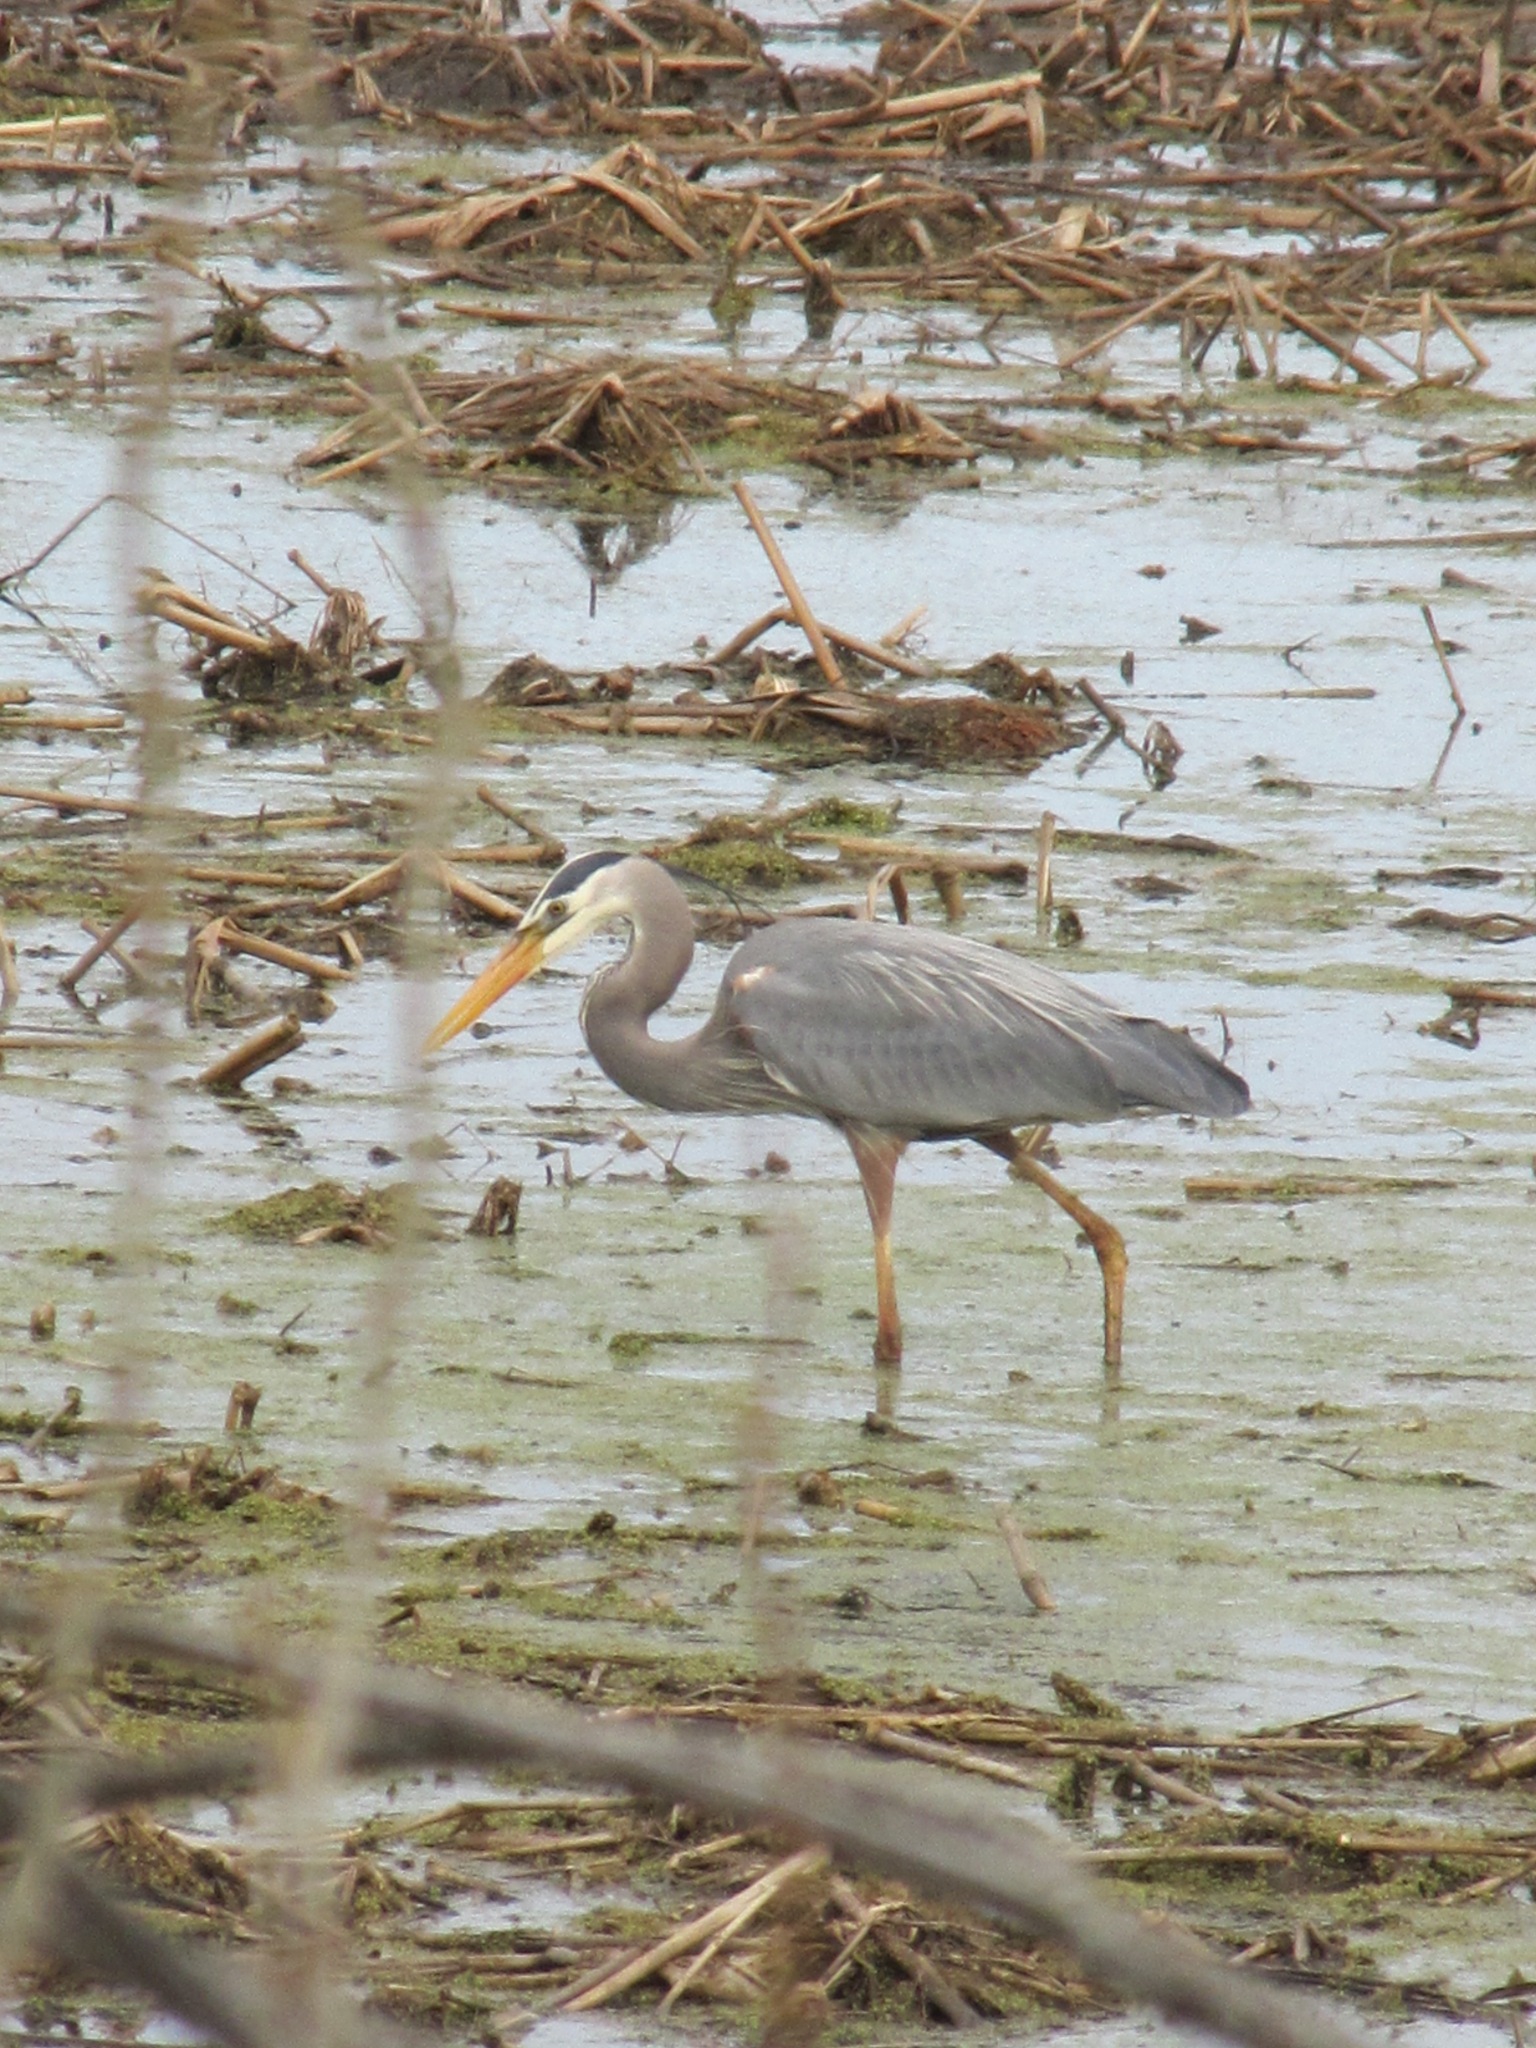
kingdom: Animalia
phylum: Chordata
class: Aves
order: Pelecaniformes
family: Ardeidae
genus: Ardea
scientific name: Ardea herodias
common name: Great blue heron
